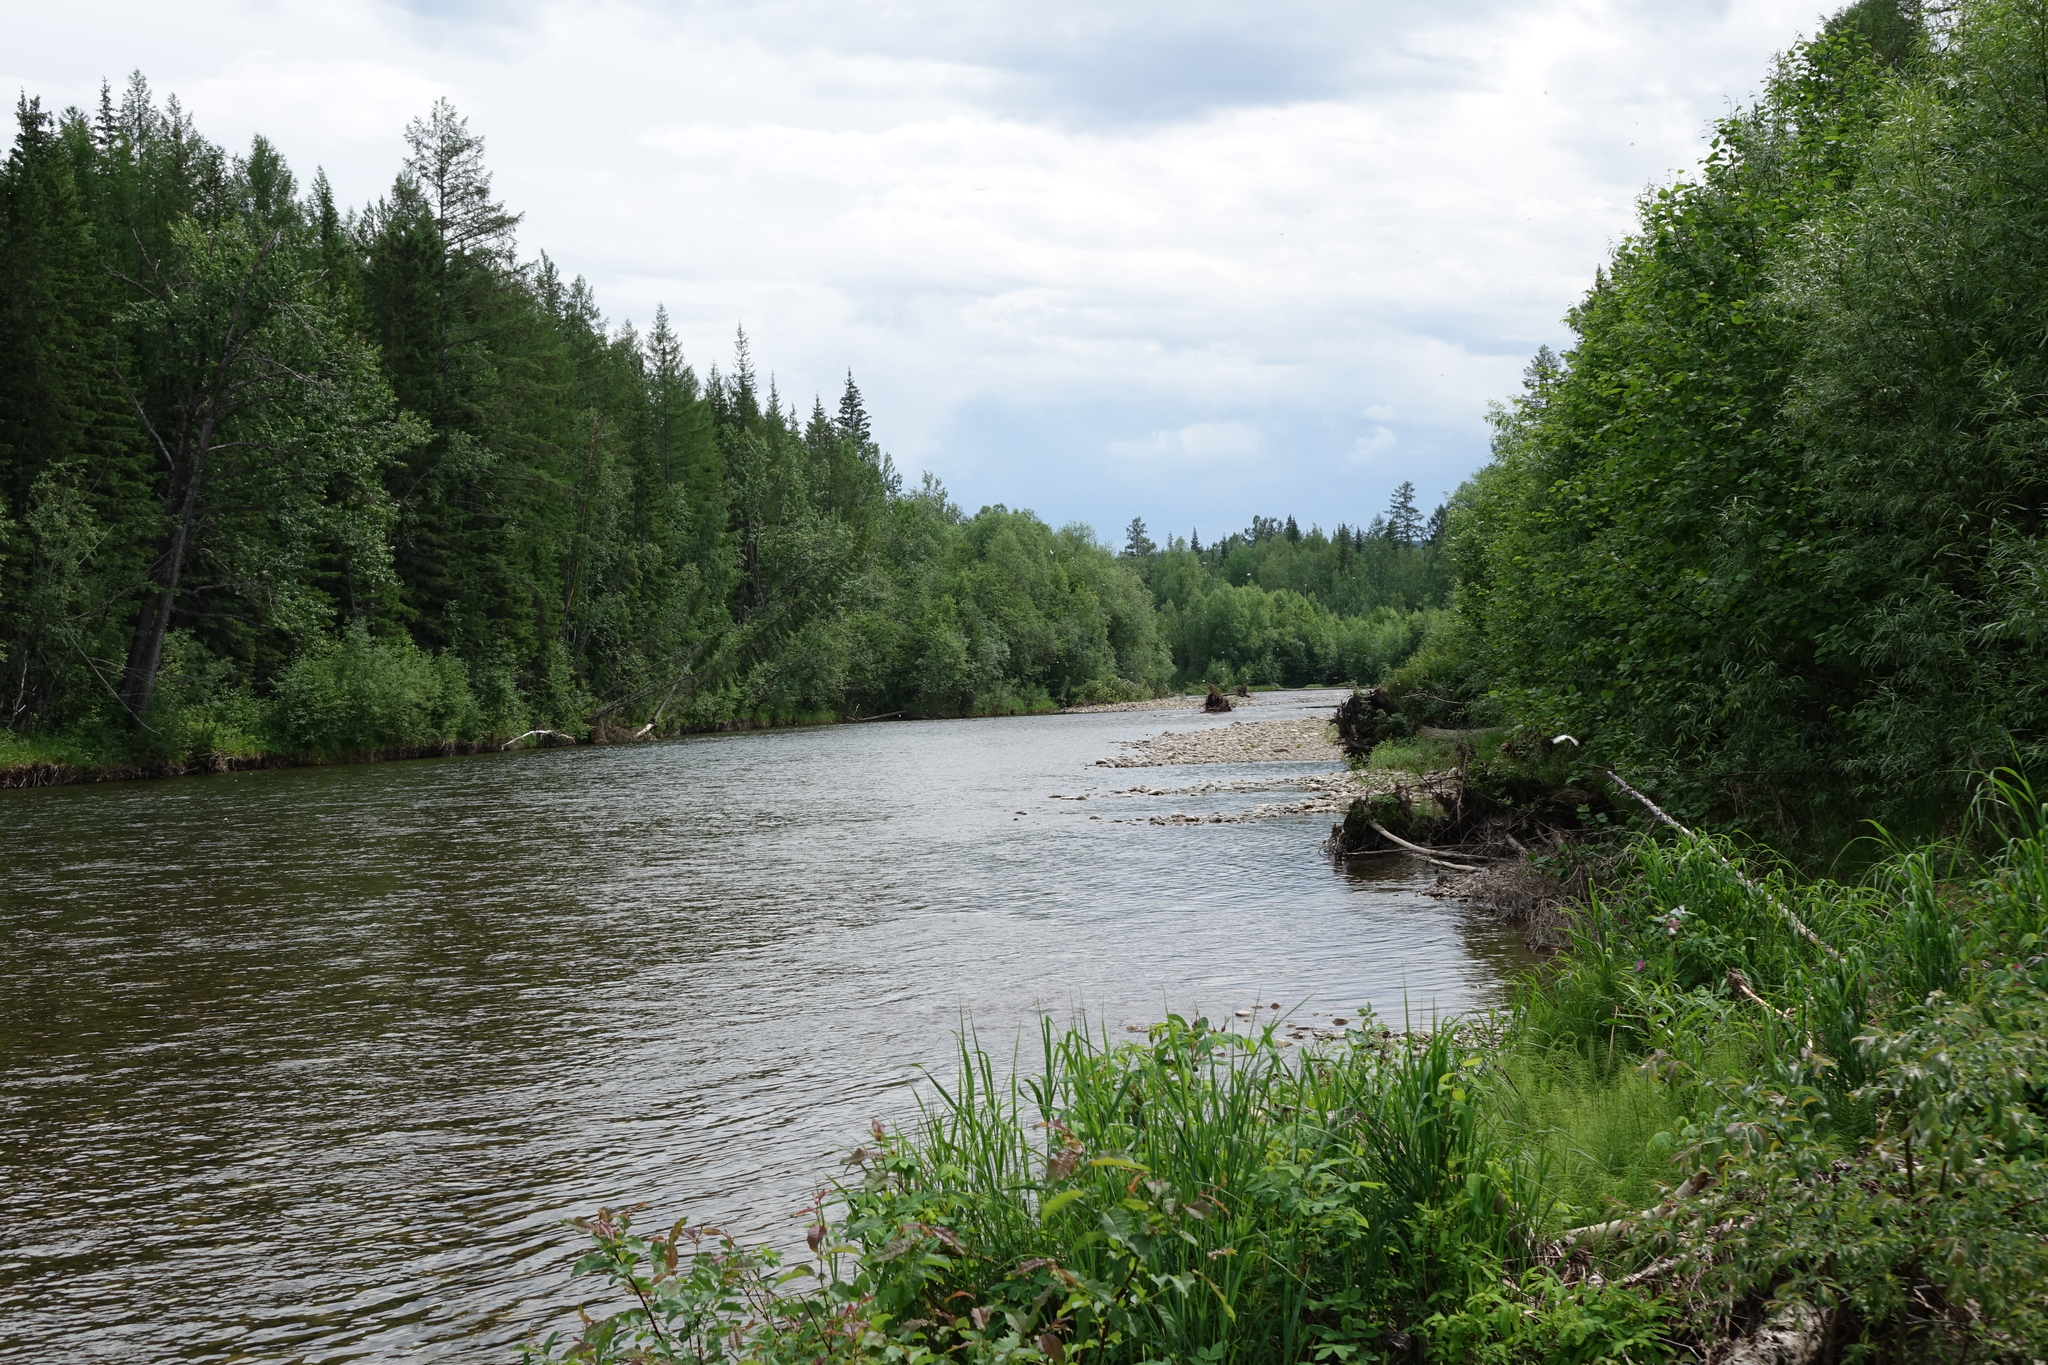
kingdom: Plantae
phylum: Tracheophyta
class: Pinopsida
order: Pinales
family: Pinaceae
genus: Picea
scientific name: Picea obovata
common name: Siberian spruce
